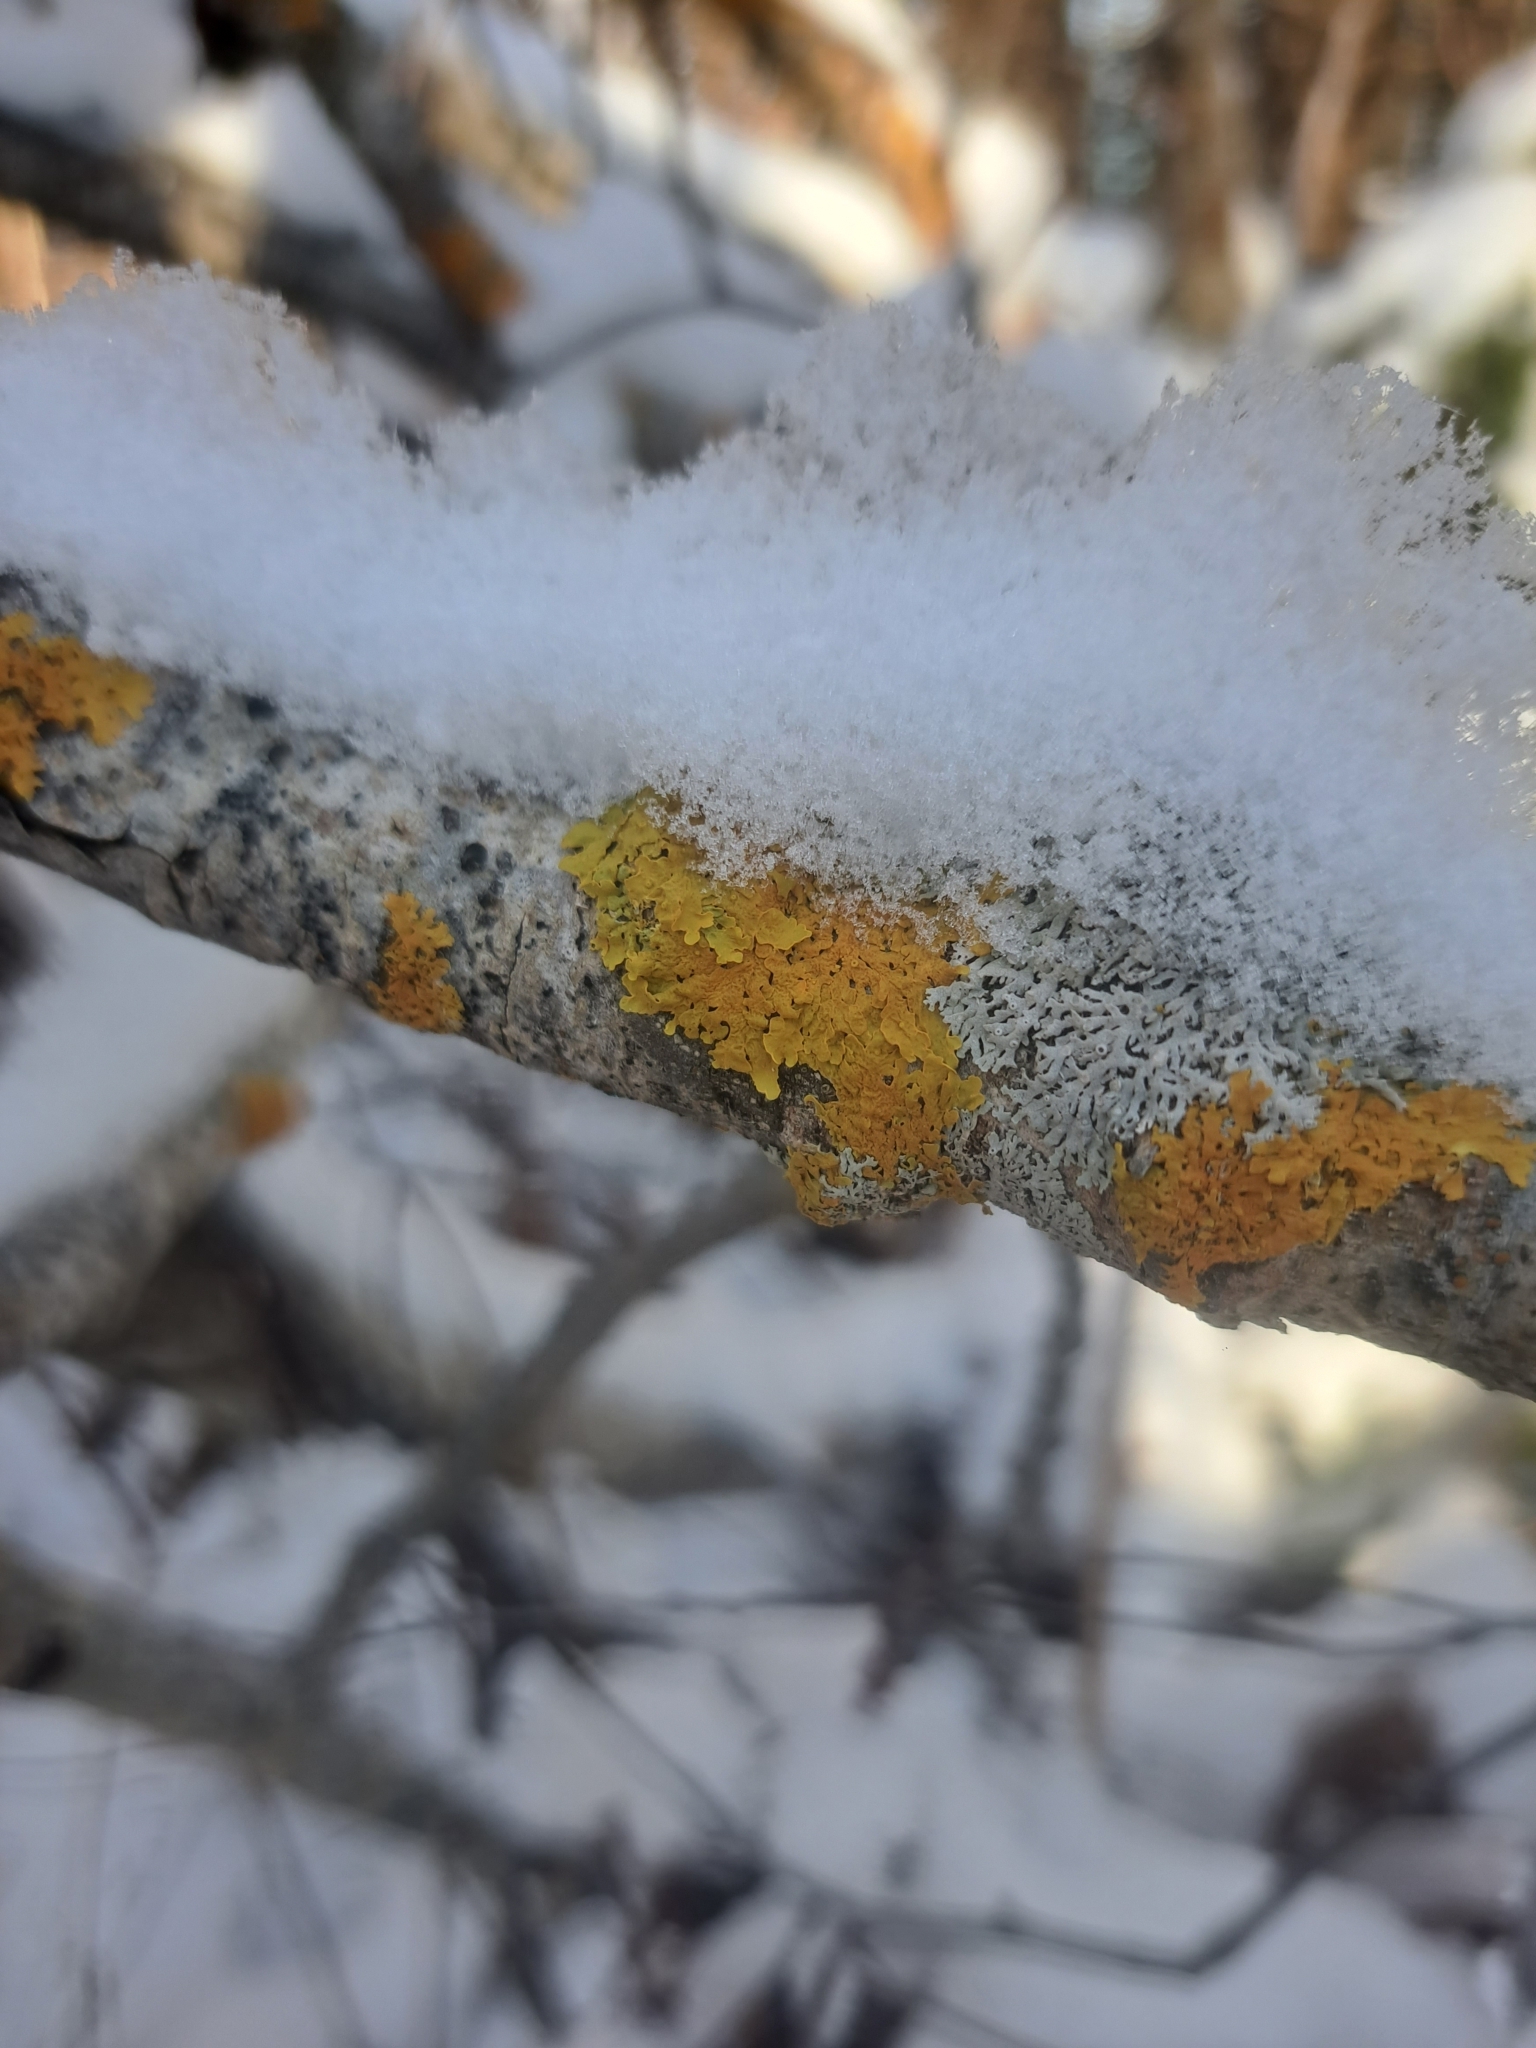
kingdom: Fungi
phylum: Ascomycota
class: Lecanoromycetes
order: Teloschistales
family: Teloschistaceae
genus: Xanthoria
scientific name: Xanthoria parietina
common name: Common orange lichen
